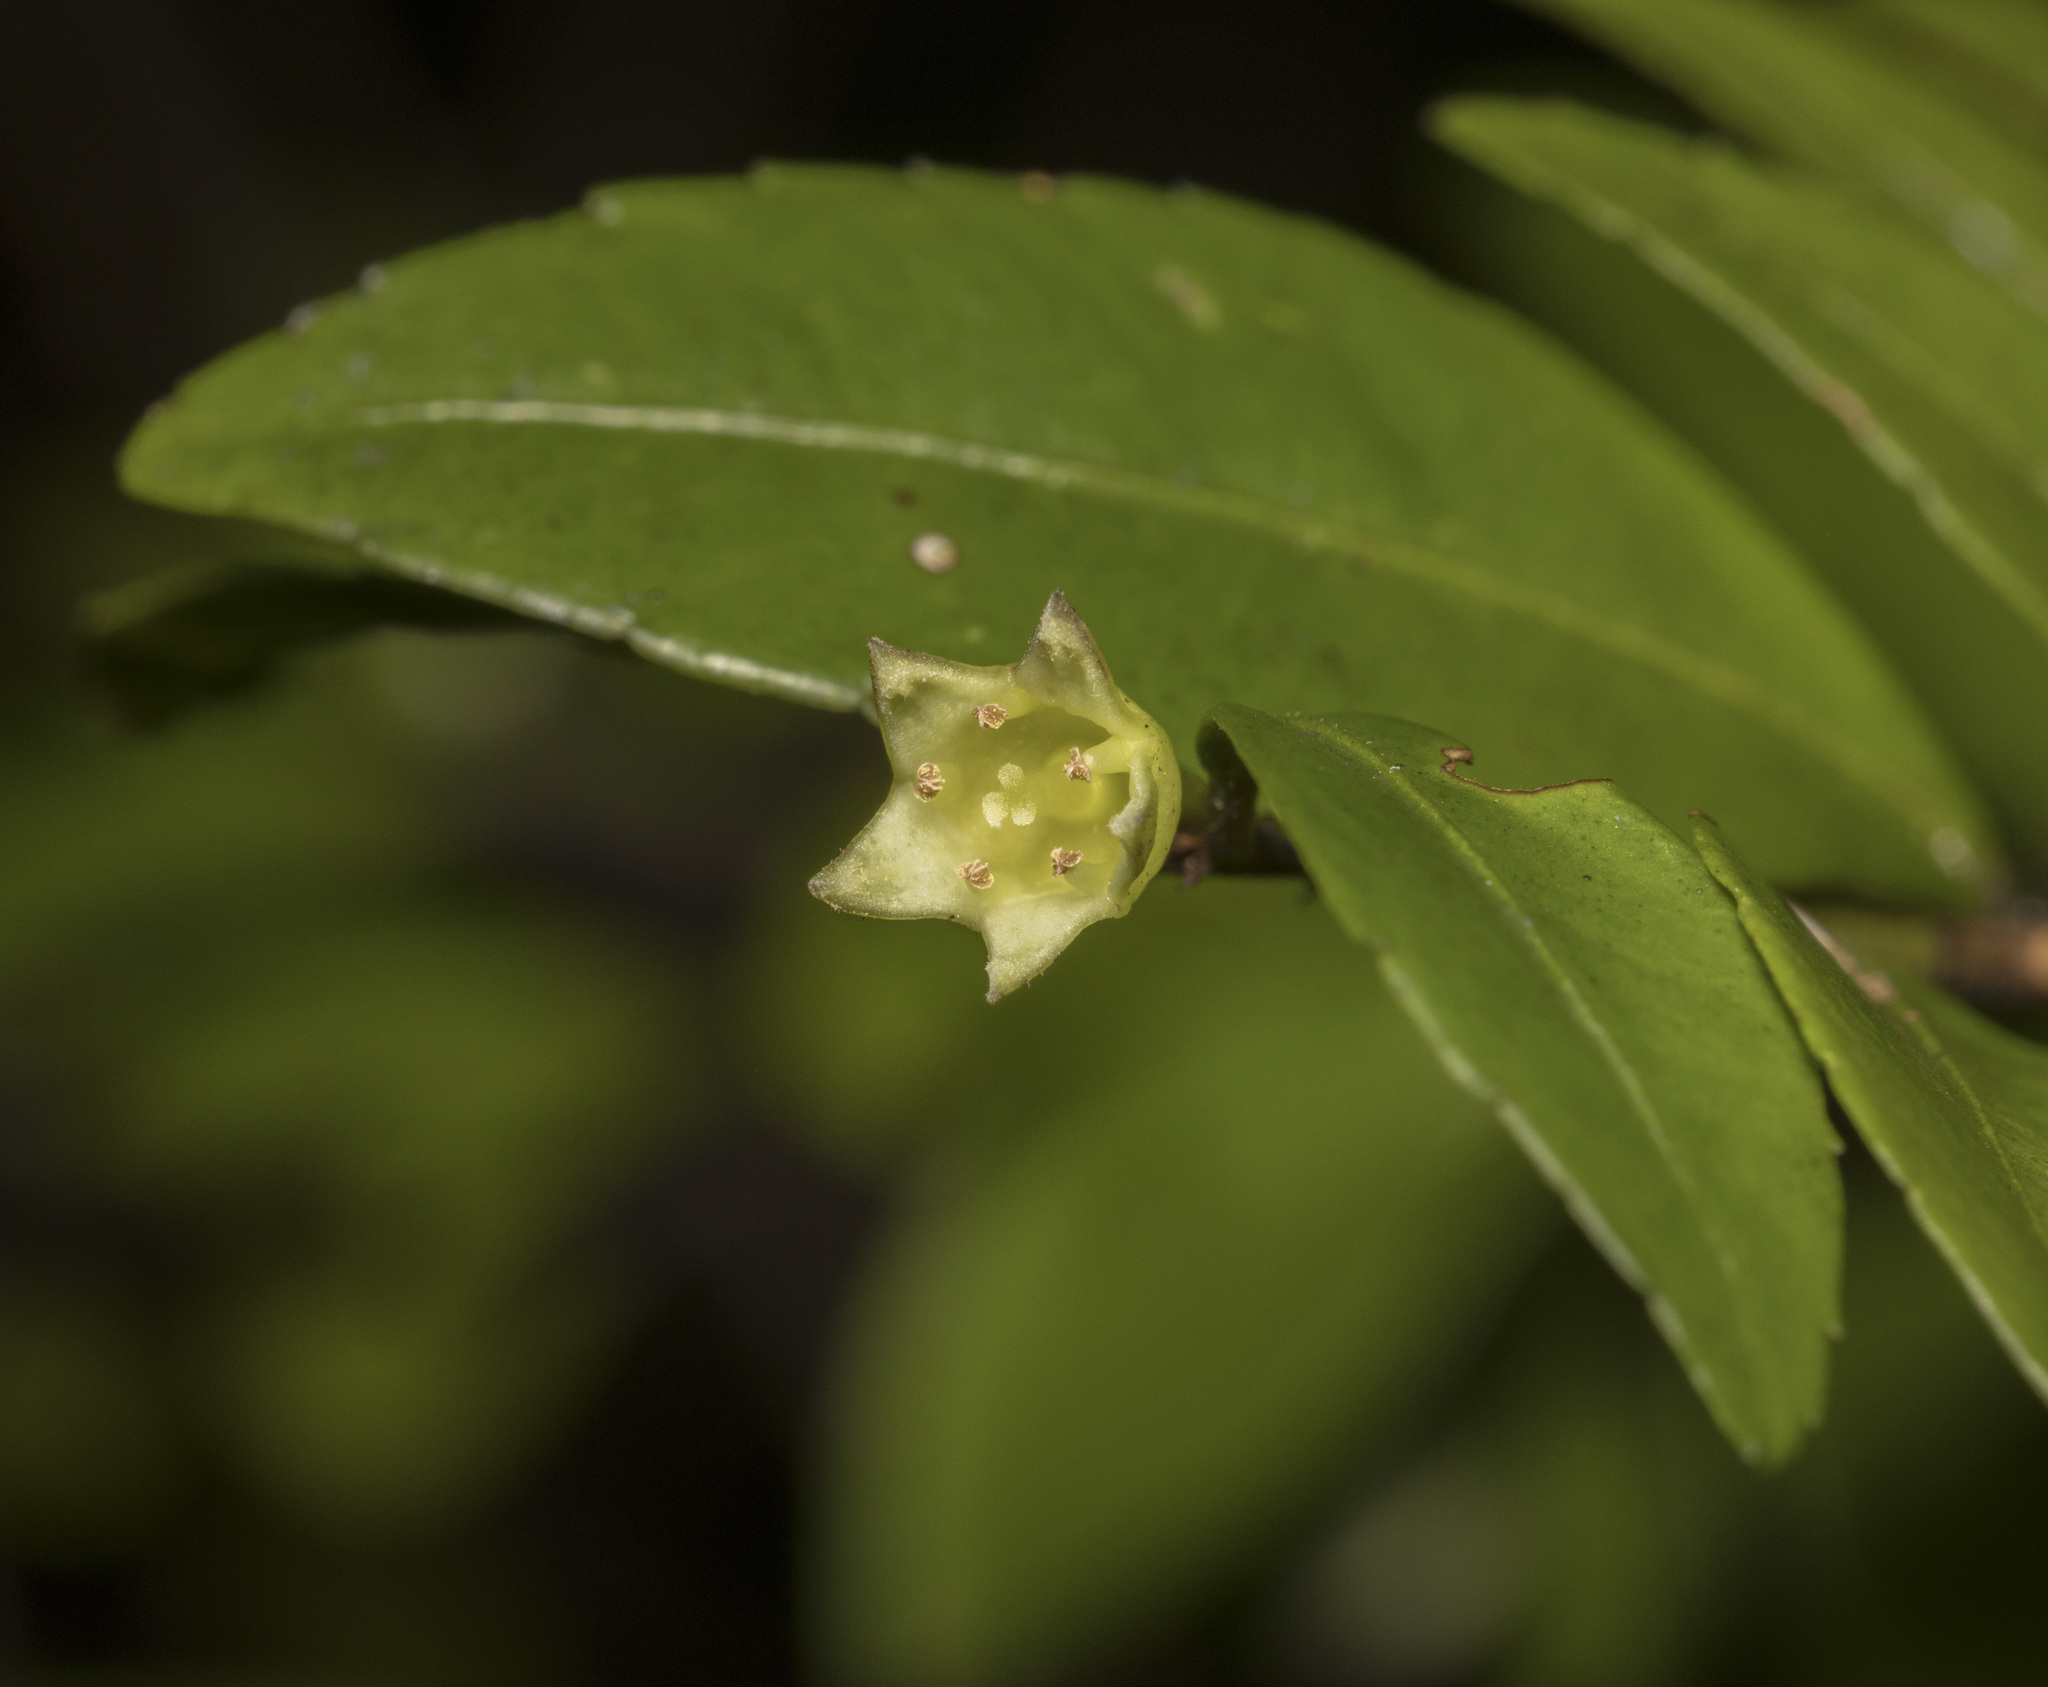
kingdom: Plantae
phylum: Tracheophyta
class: Magnoliopsida
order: Rosales
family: Rhamnaceae
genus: Condalia
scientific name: Condalia maytenoides
